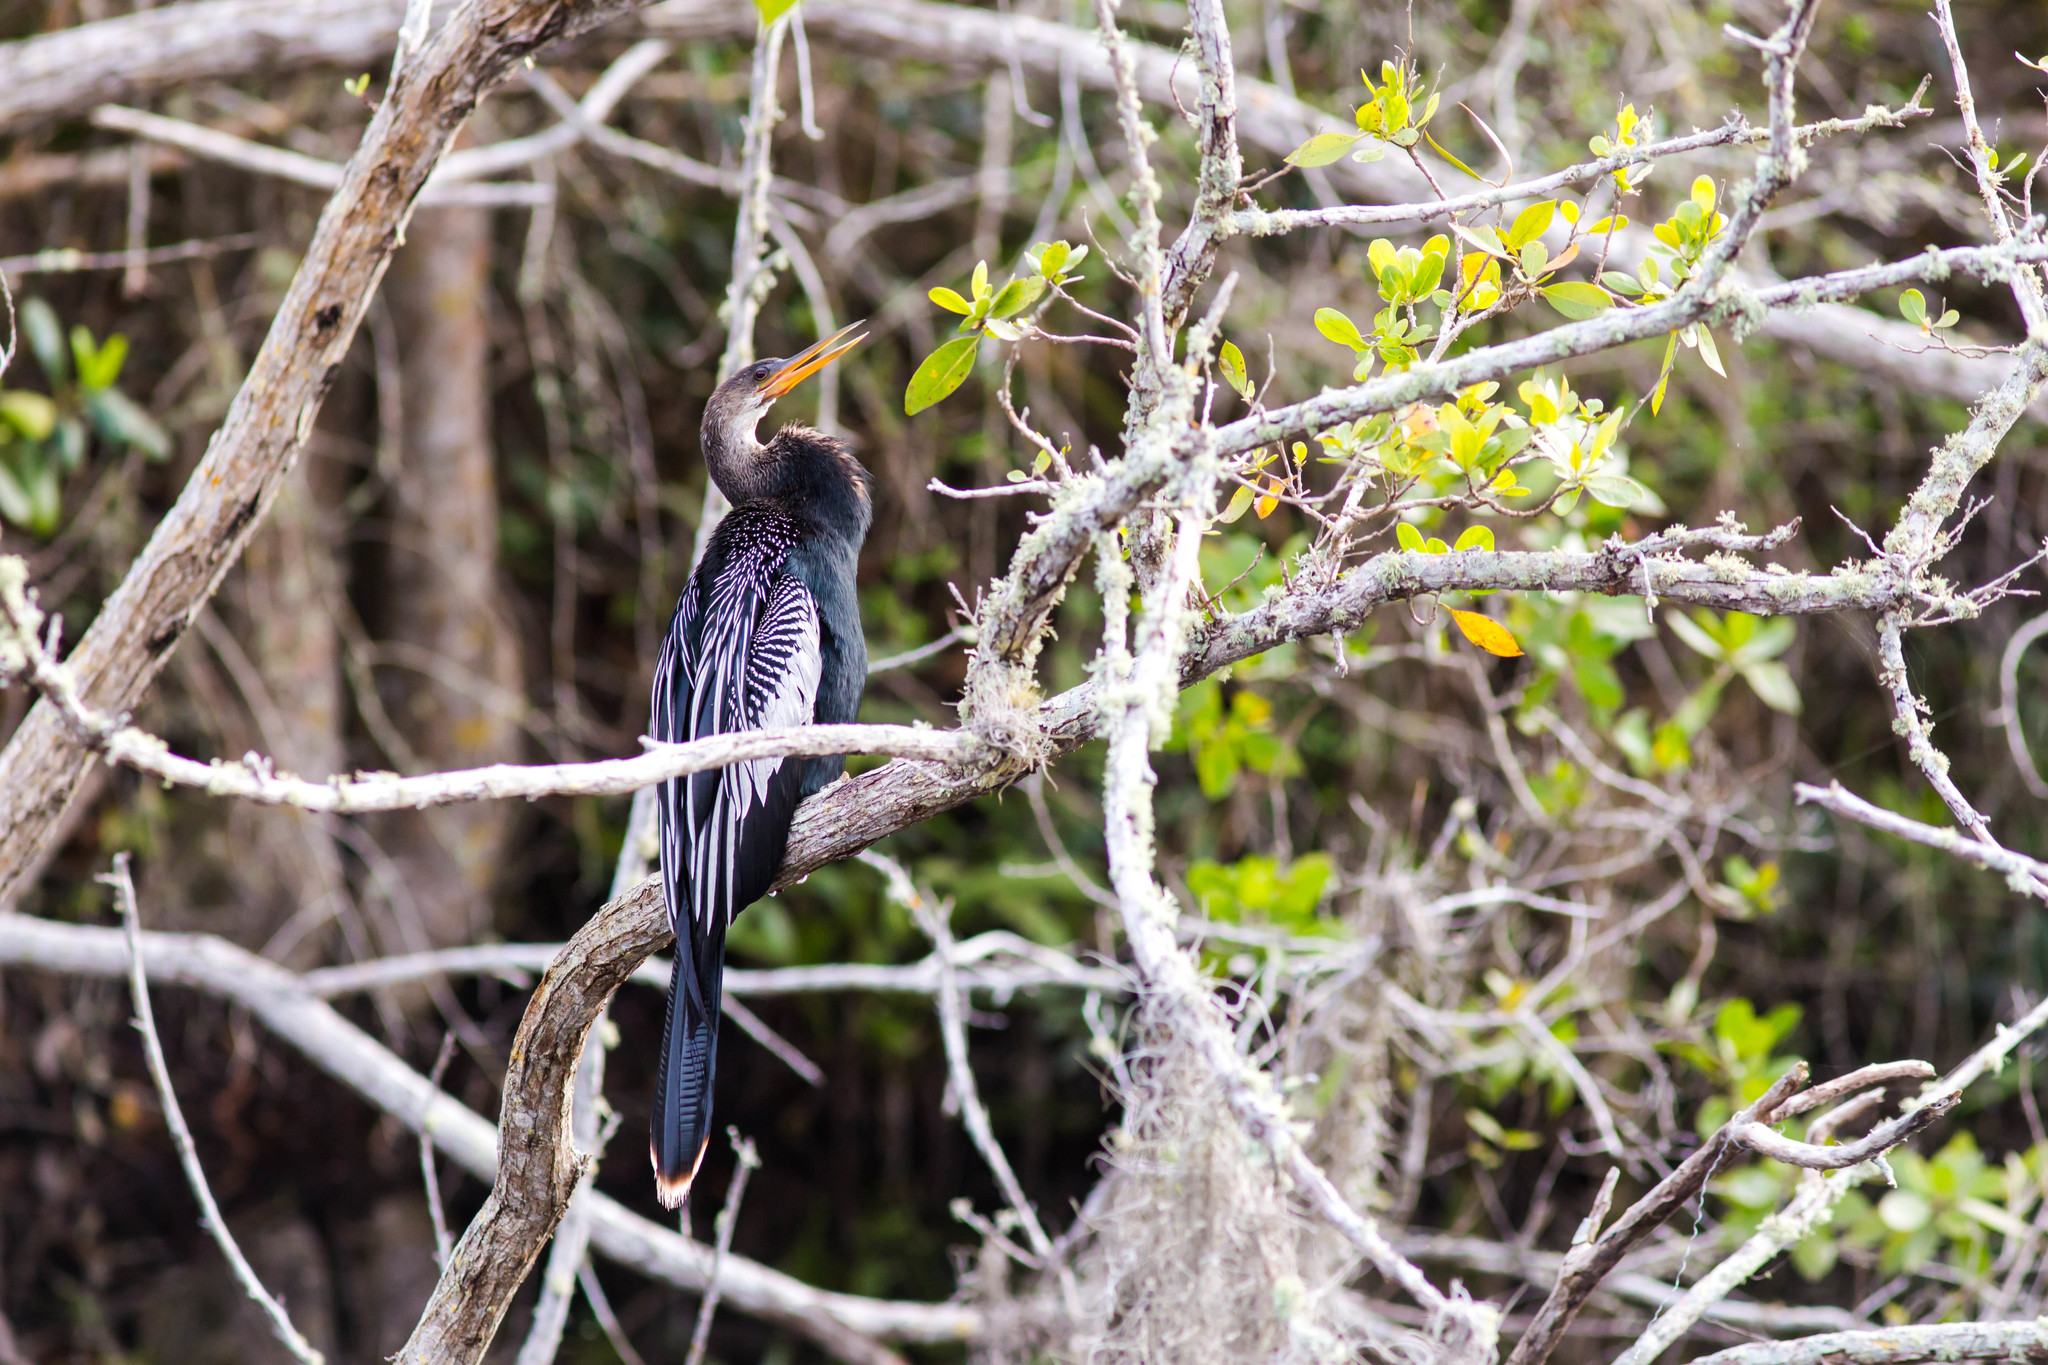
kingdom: Animalia
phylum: Chordata
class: Aves
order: Suliformes
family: Anhingidae
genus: Anhinga
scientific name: Anhinga anhinga
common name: Anhinga
